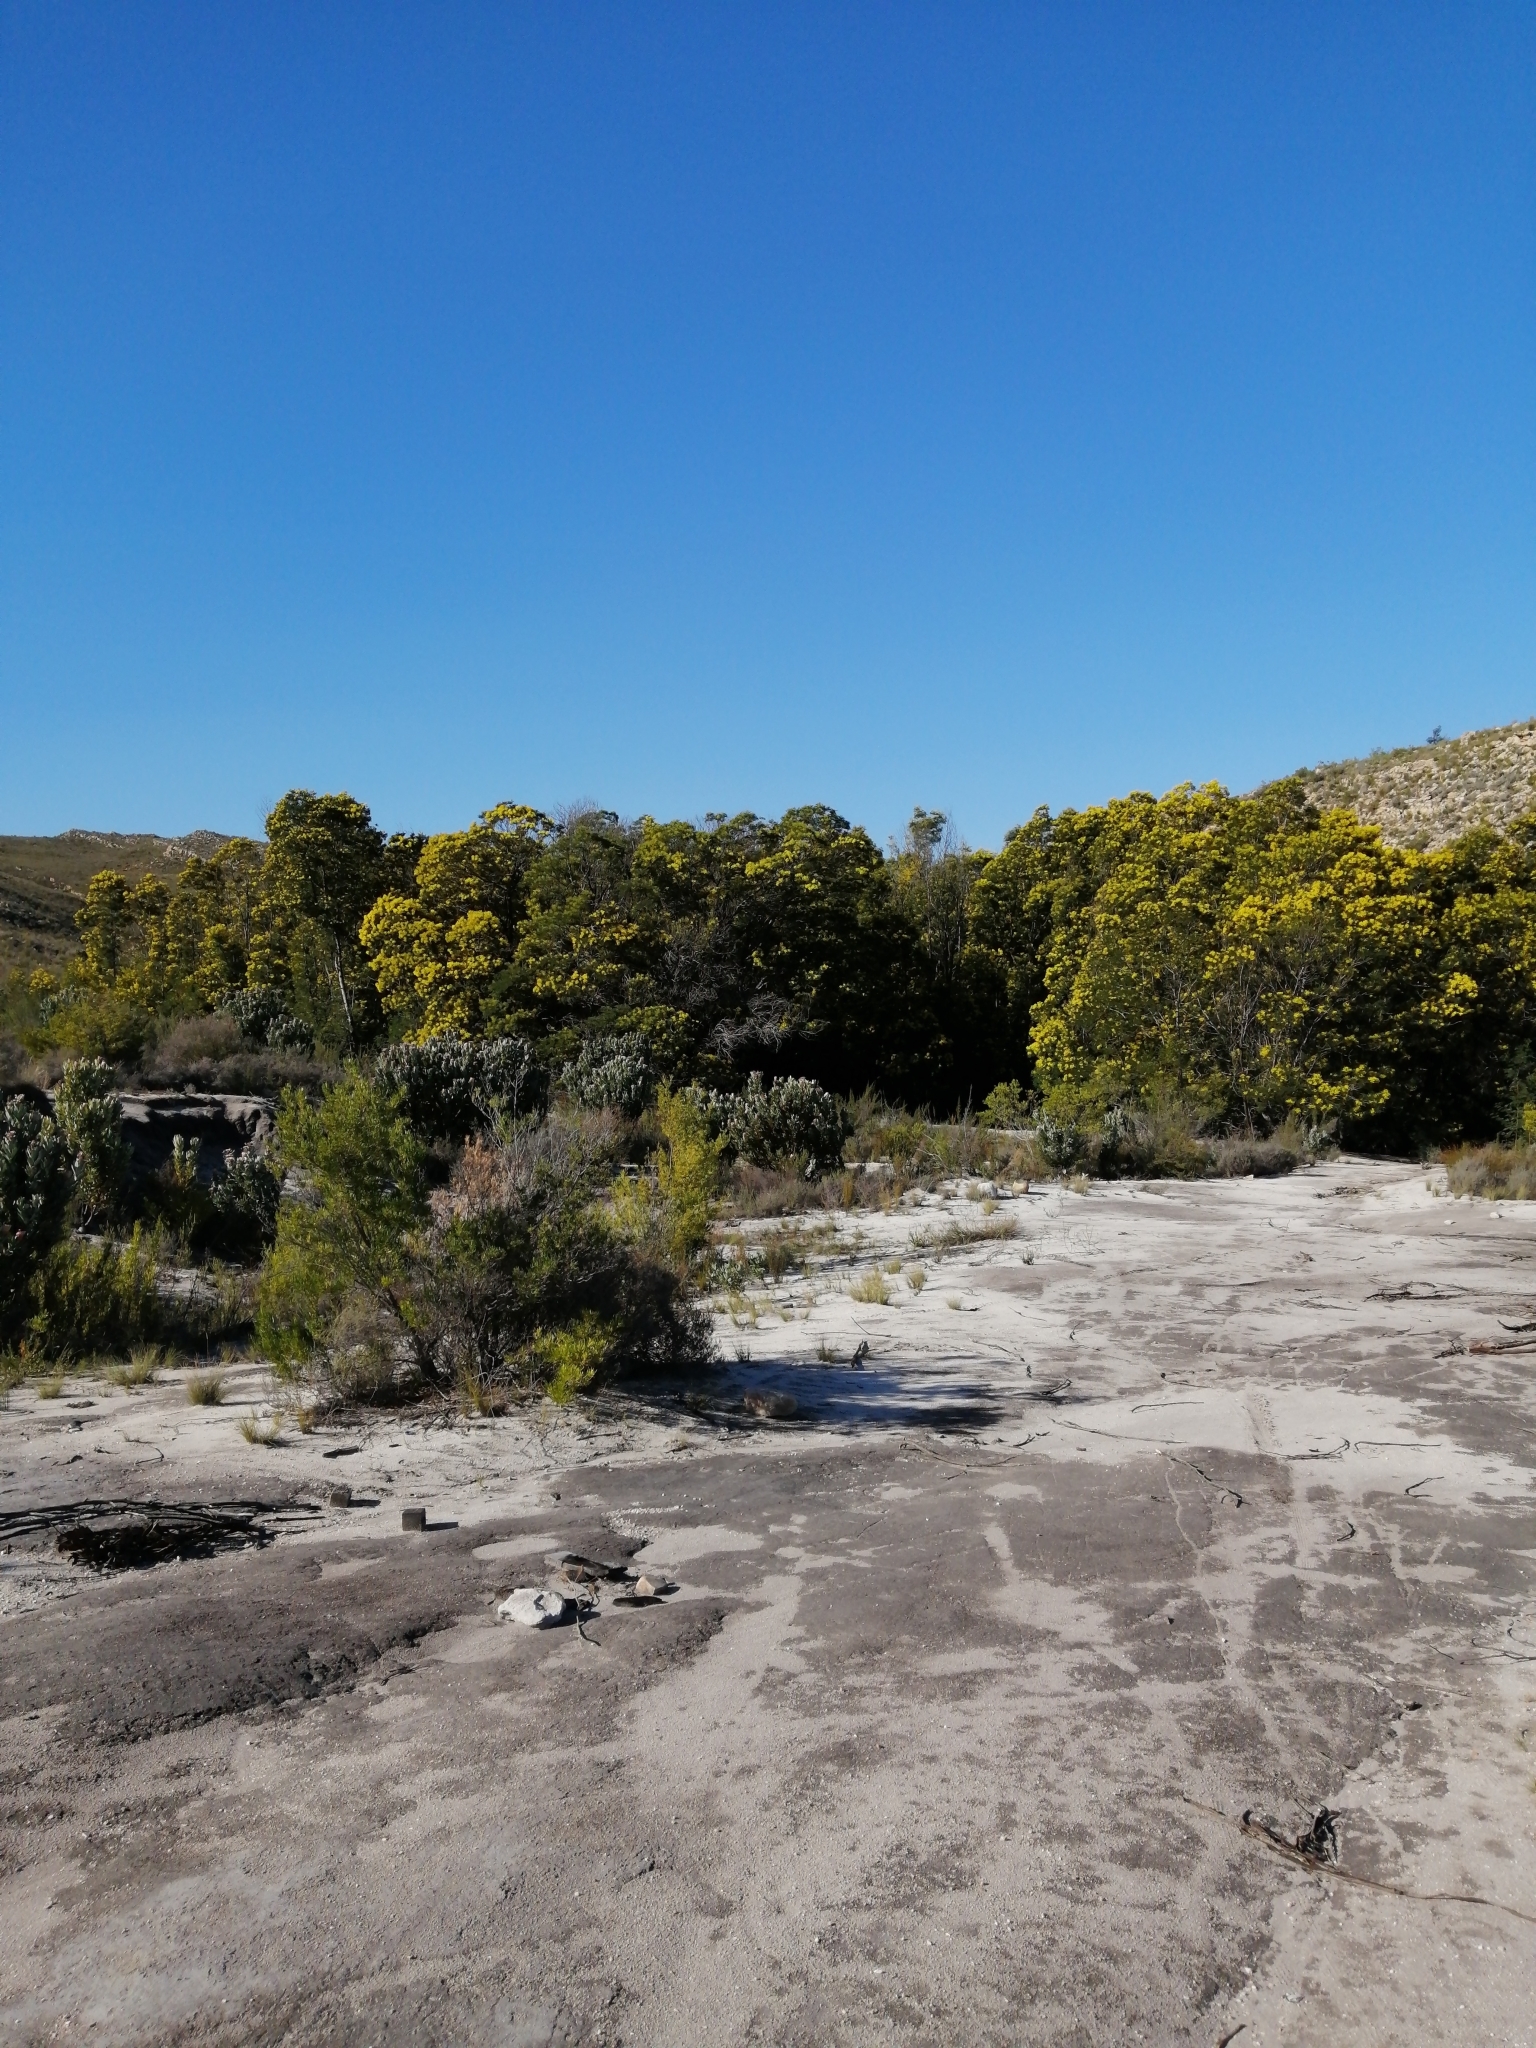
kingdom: Plantae
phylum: Tracheophyta
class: Magnoliopsida
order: Fabales
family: Fabaceae
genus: Acacia
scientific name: Acacia mearnsii
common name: Black wattle
